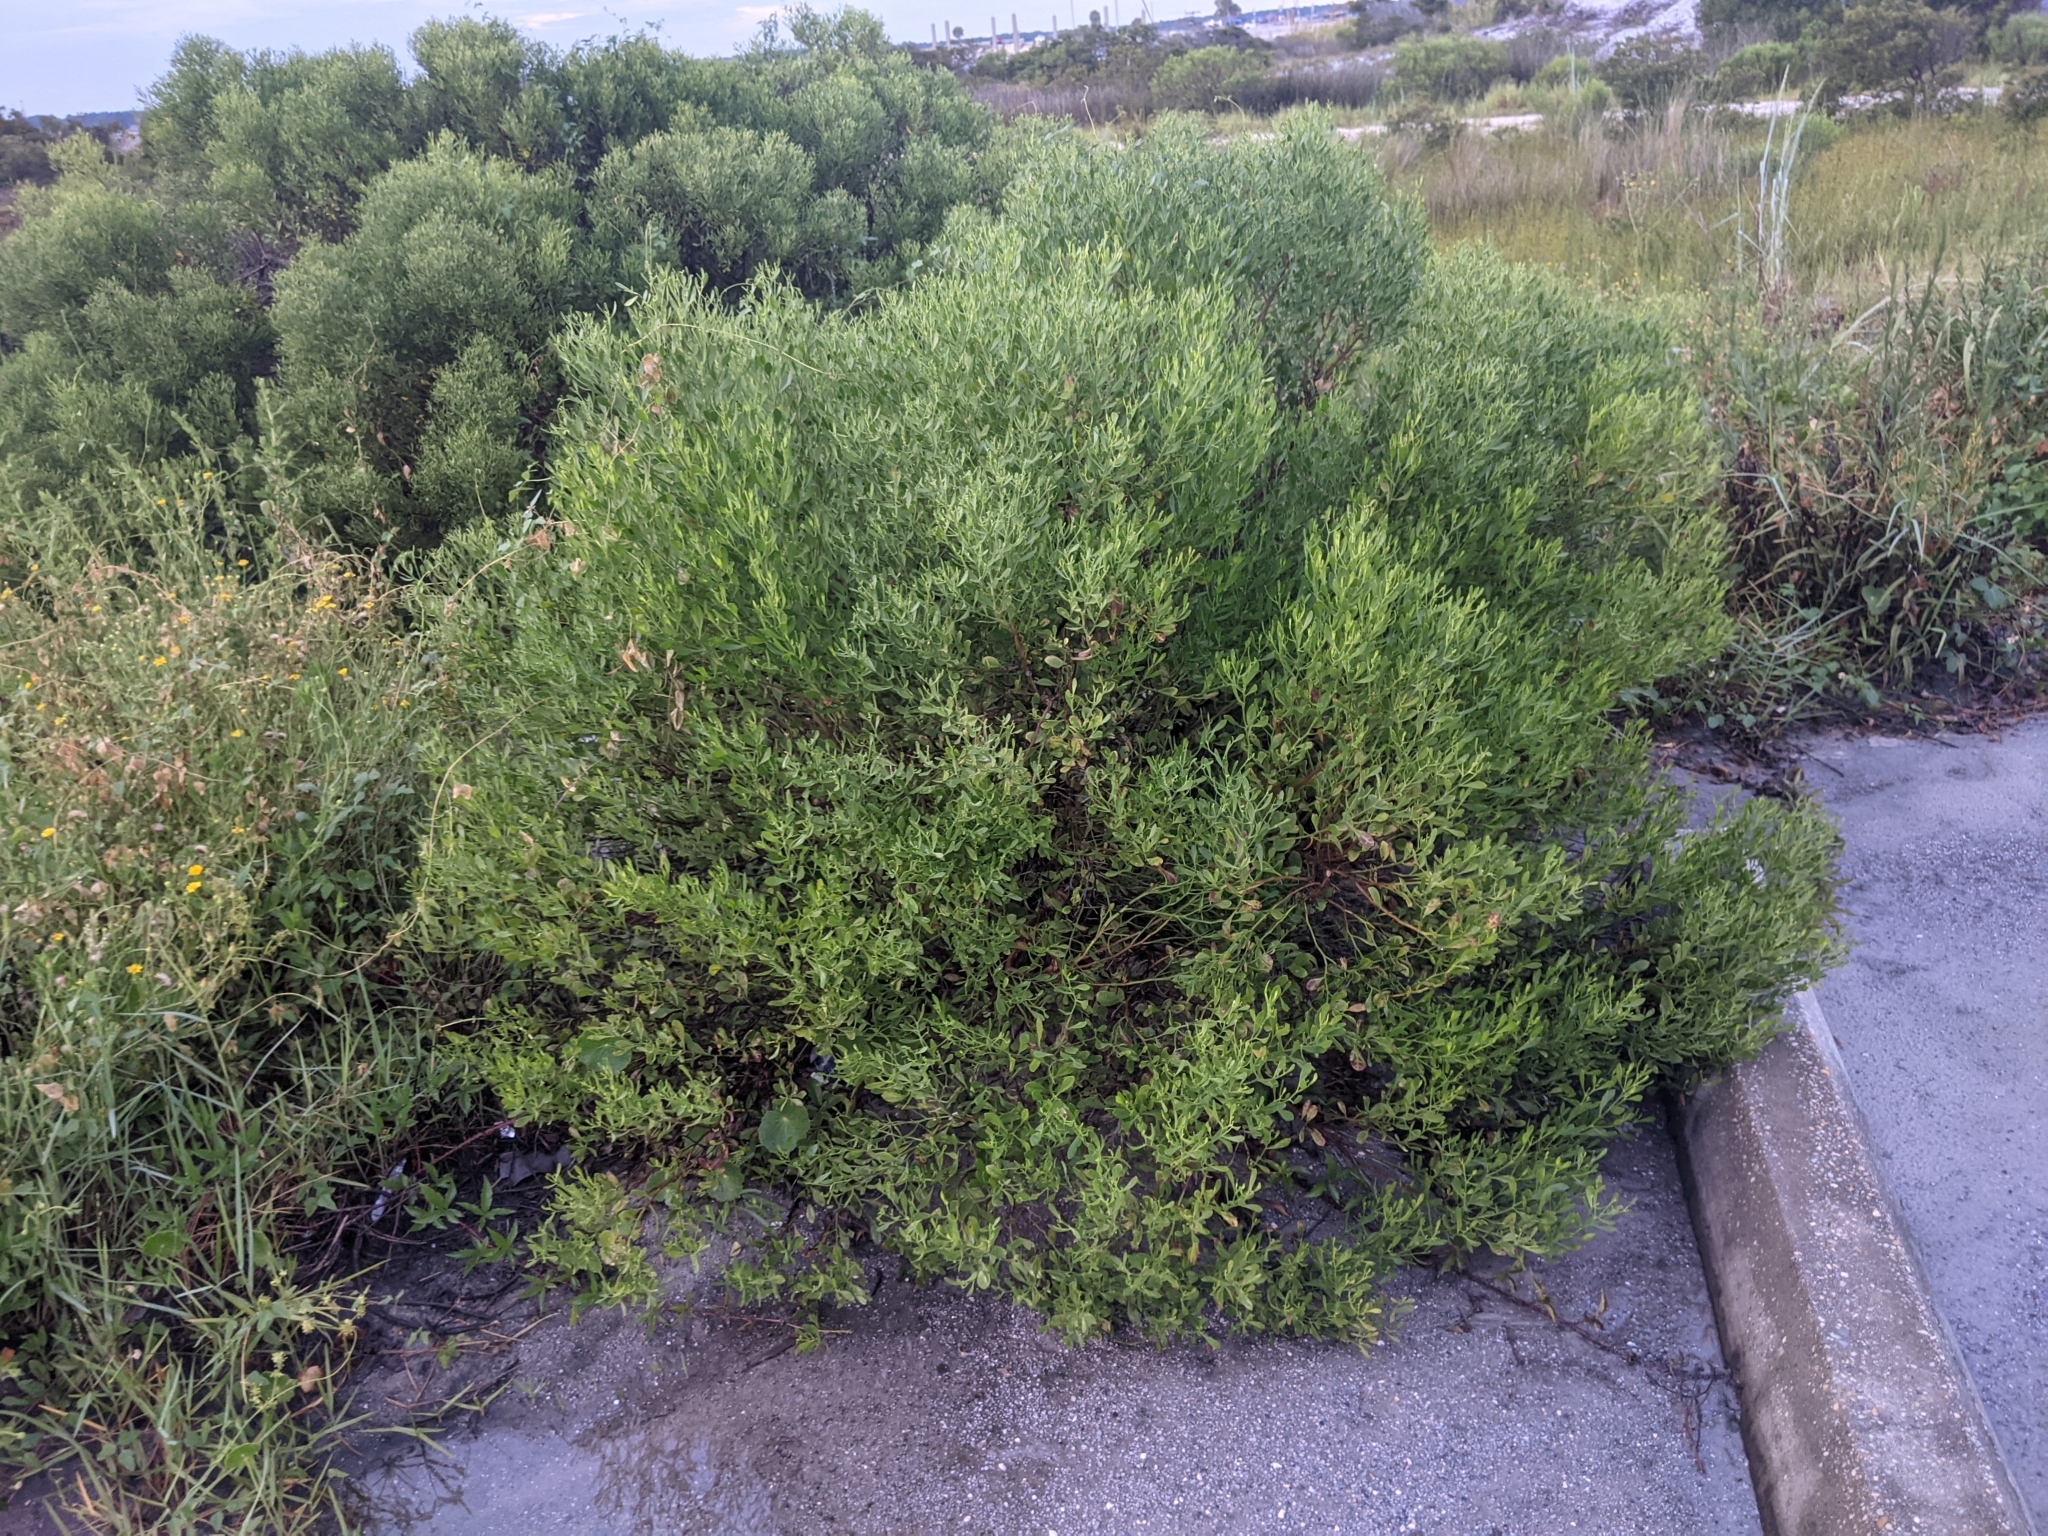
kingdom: Plantae
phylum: Tracheophyta
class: Magnoliopsida
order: Asterales
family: Asteraceae
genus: Baccharis
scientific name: Baccharis halimifolia
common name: Eastern baccharis
